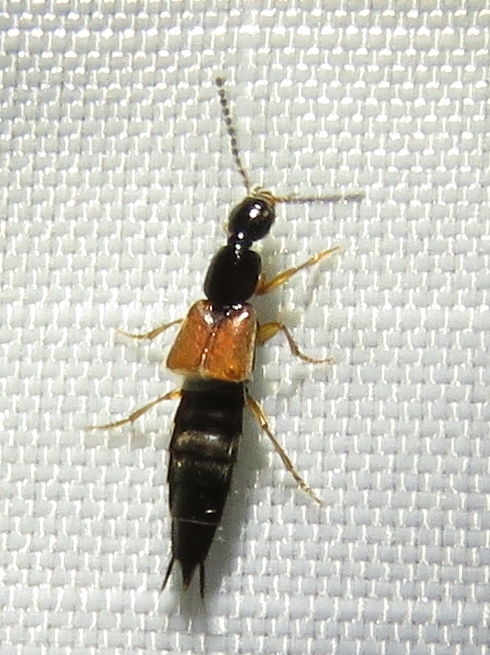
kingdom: Animalia
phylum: Arthropoda
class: Insecta
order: Coleoptera
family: Staphylinidae
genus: Philonthus
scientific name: Philonthus rufulus
